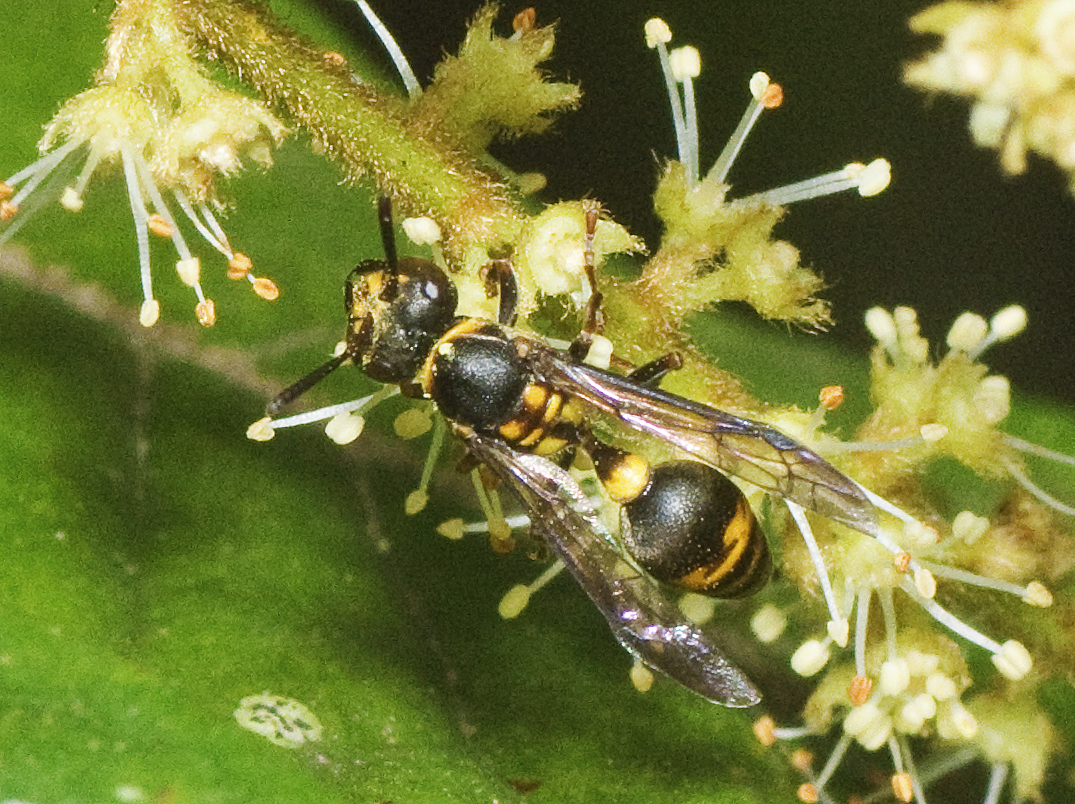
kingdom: Animalia
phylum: Arthropoda
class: Insecta
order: Hymenoptera
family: Vespidae
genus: Ropalidia
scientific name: Ropalidia socialistica
